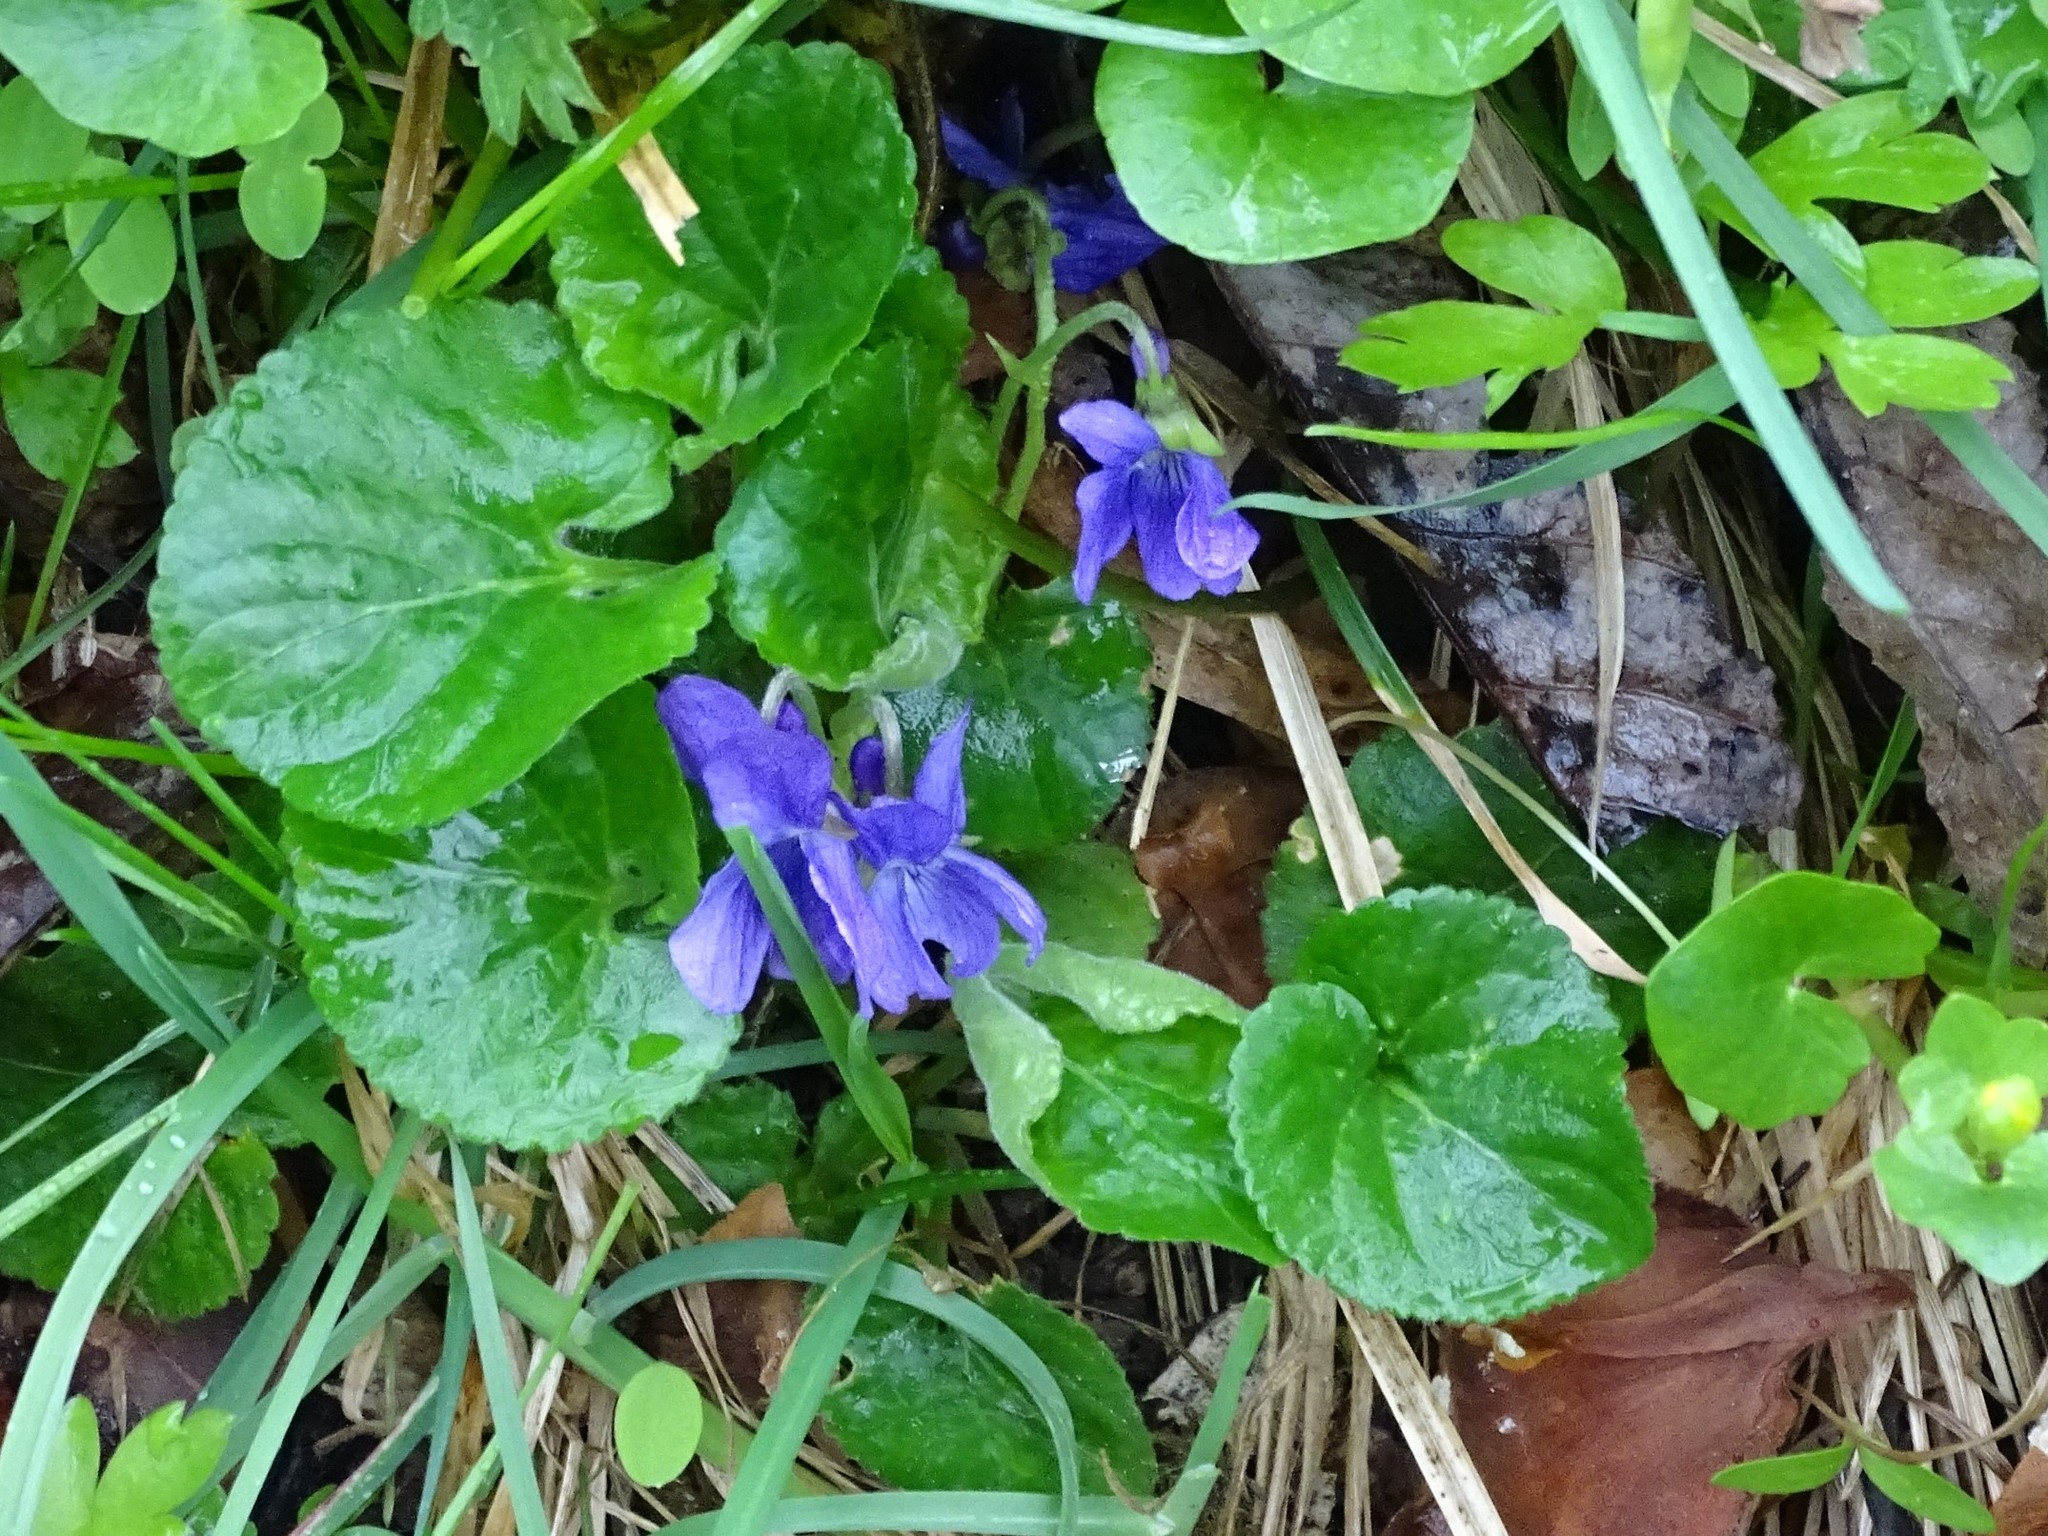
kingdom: Plantae
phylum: Tracheophyta
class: Magnoliopsida
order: Malpighiales
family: Violaceae
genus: Viola
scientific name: Viola odorata
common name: Sweet violet
